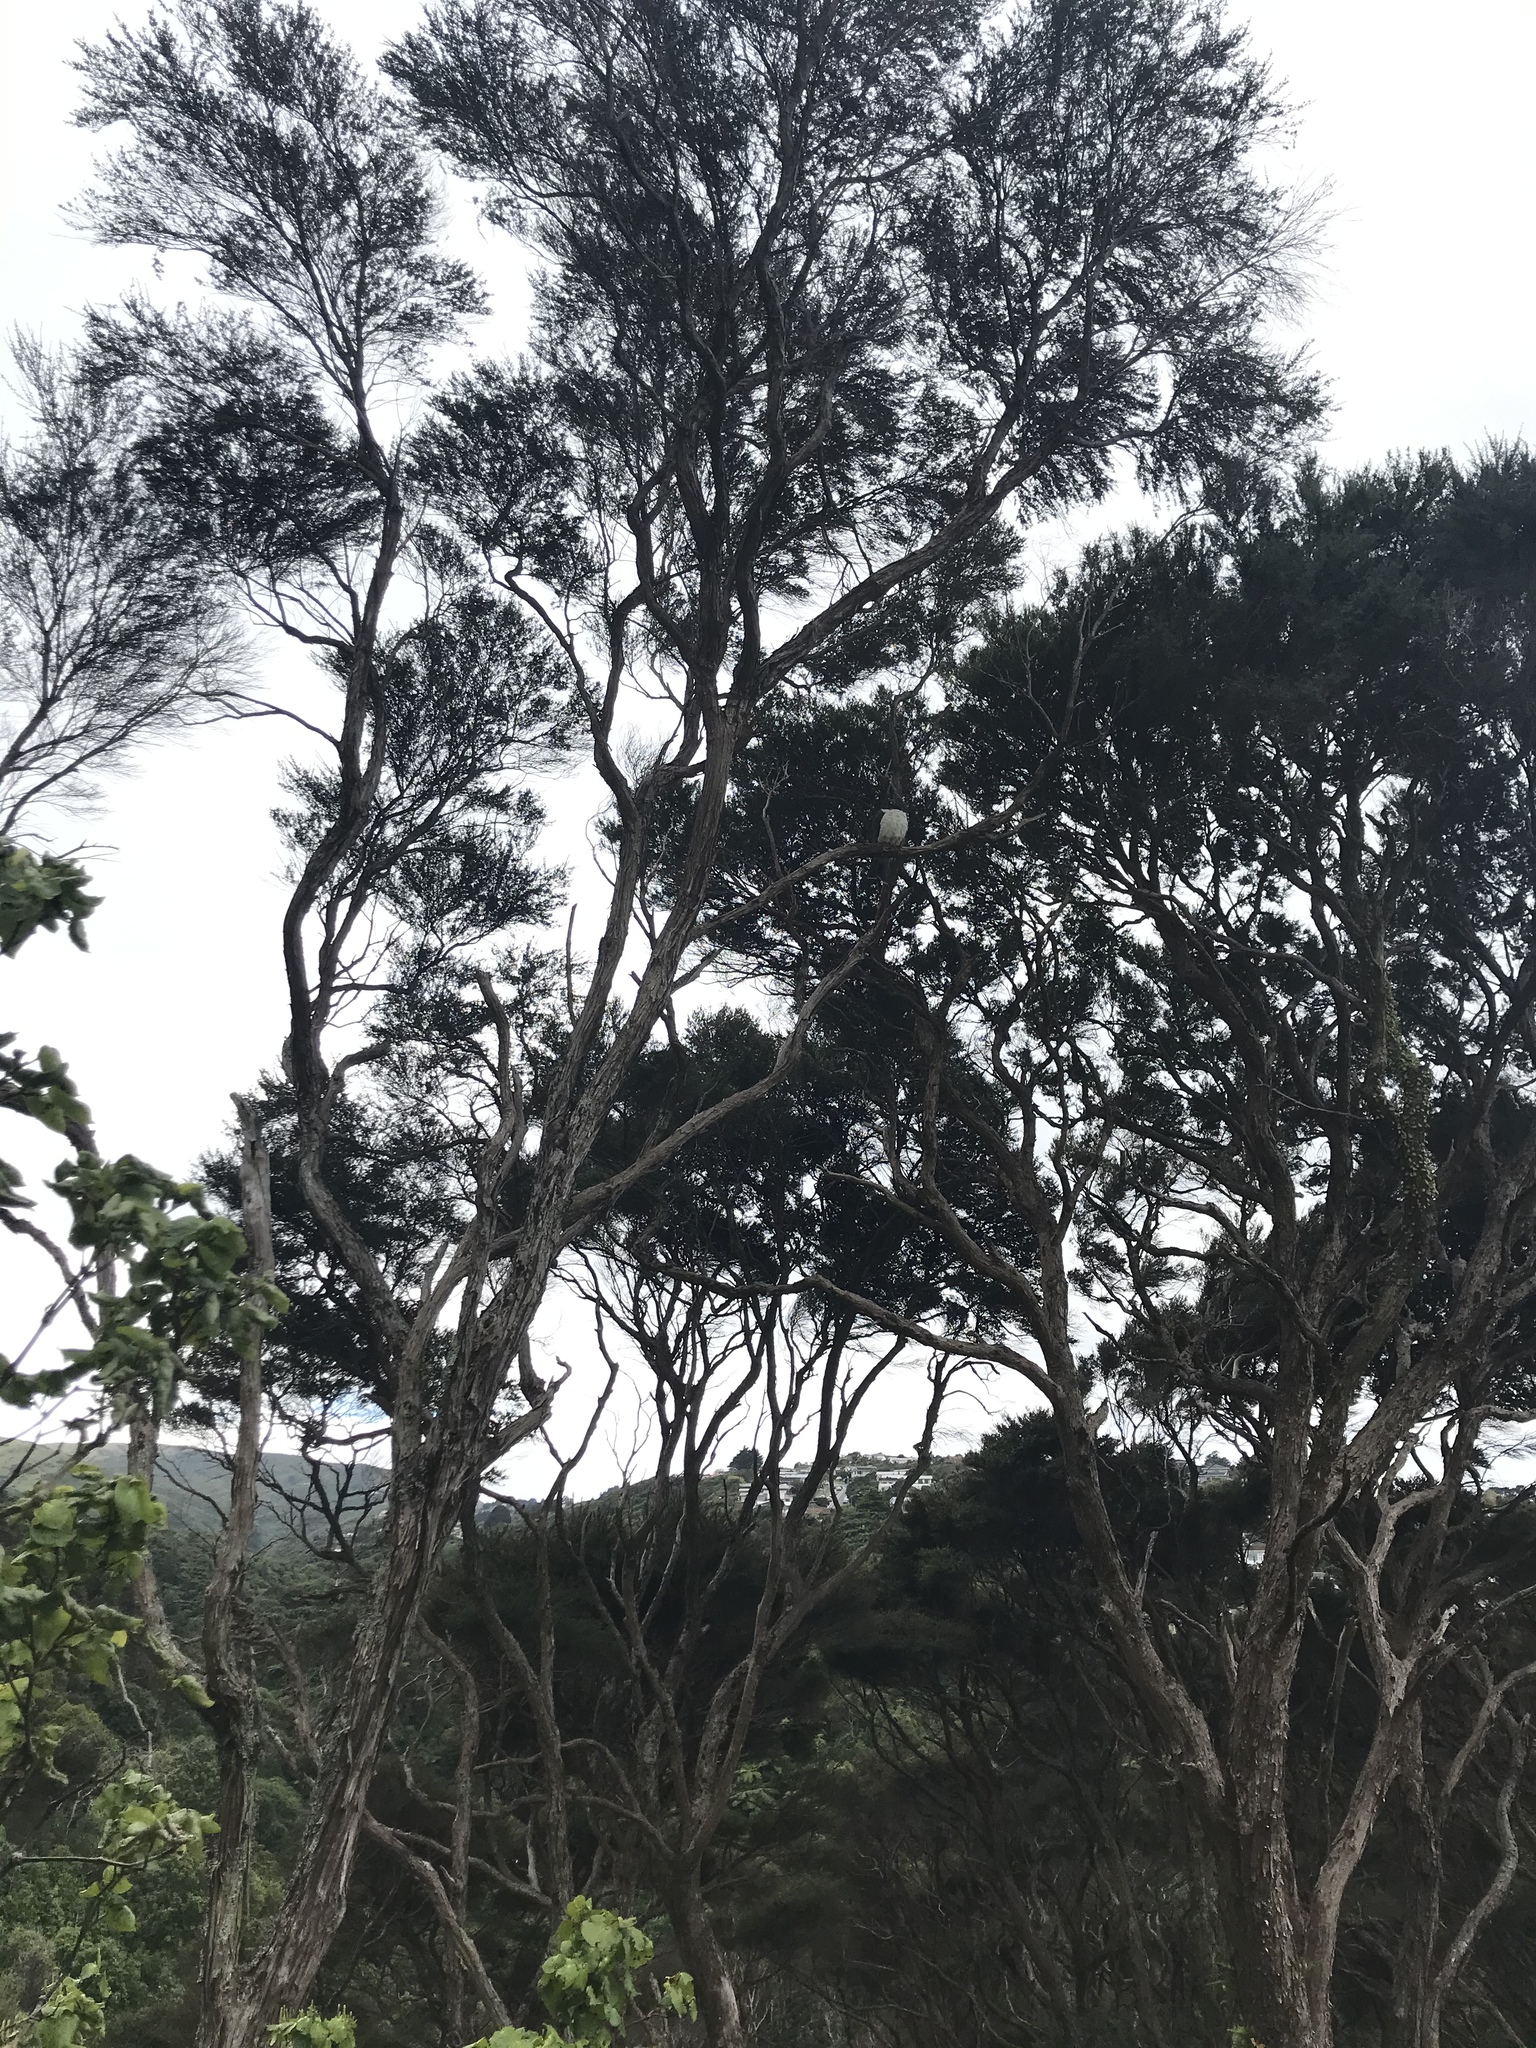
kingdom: Animalia
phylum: Chordata
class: Aves
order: Columbiformes
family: Columbidae
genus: Hemiphaga
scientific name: Hemiphaga novaeseelandiae
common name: New zealand pigeon
